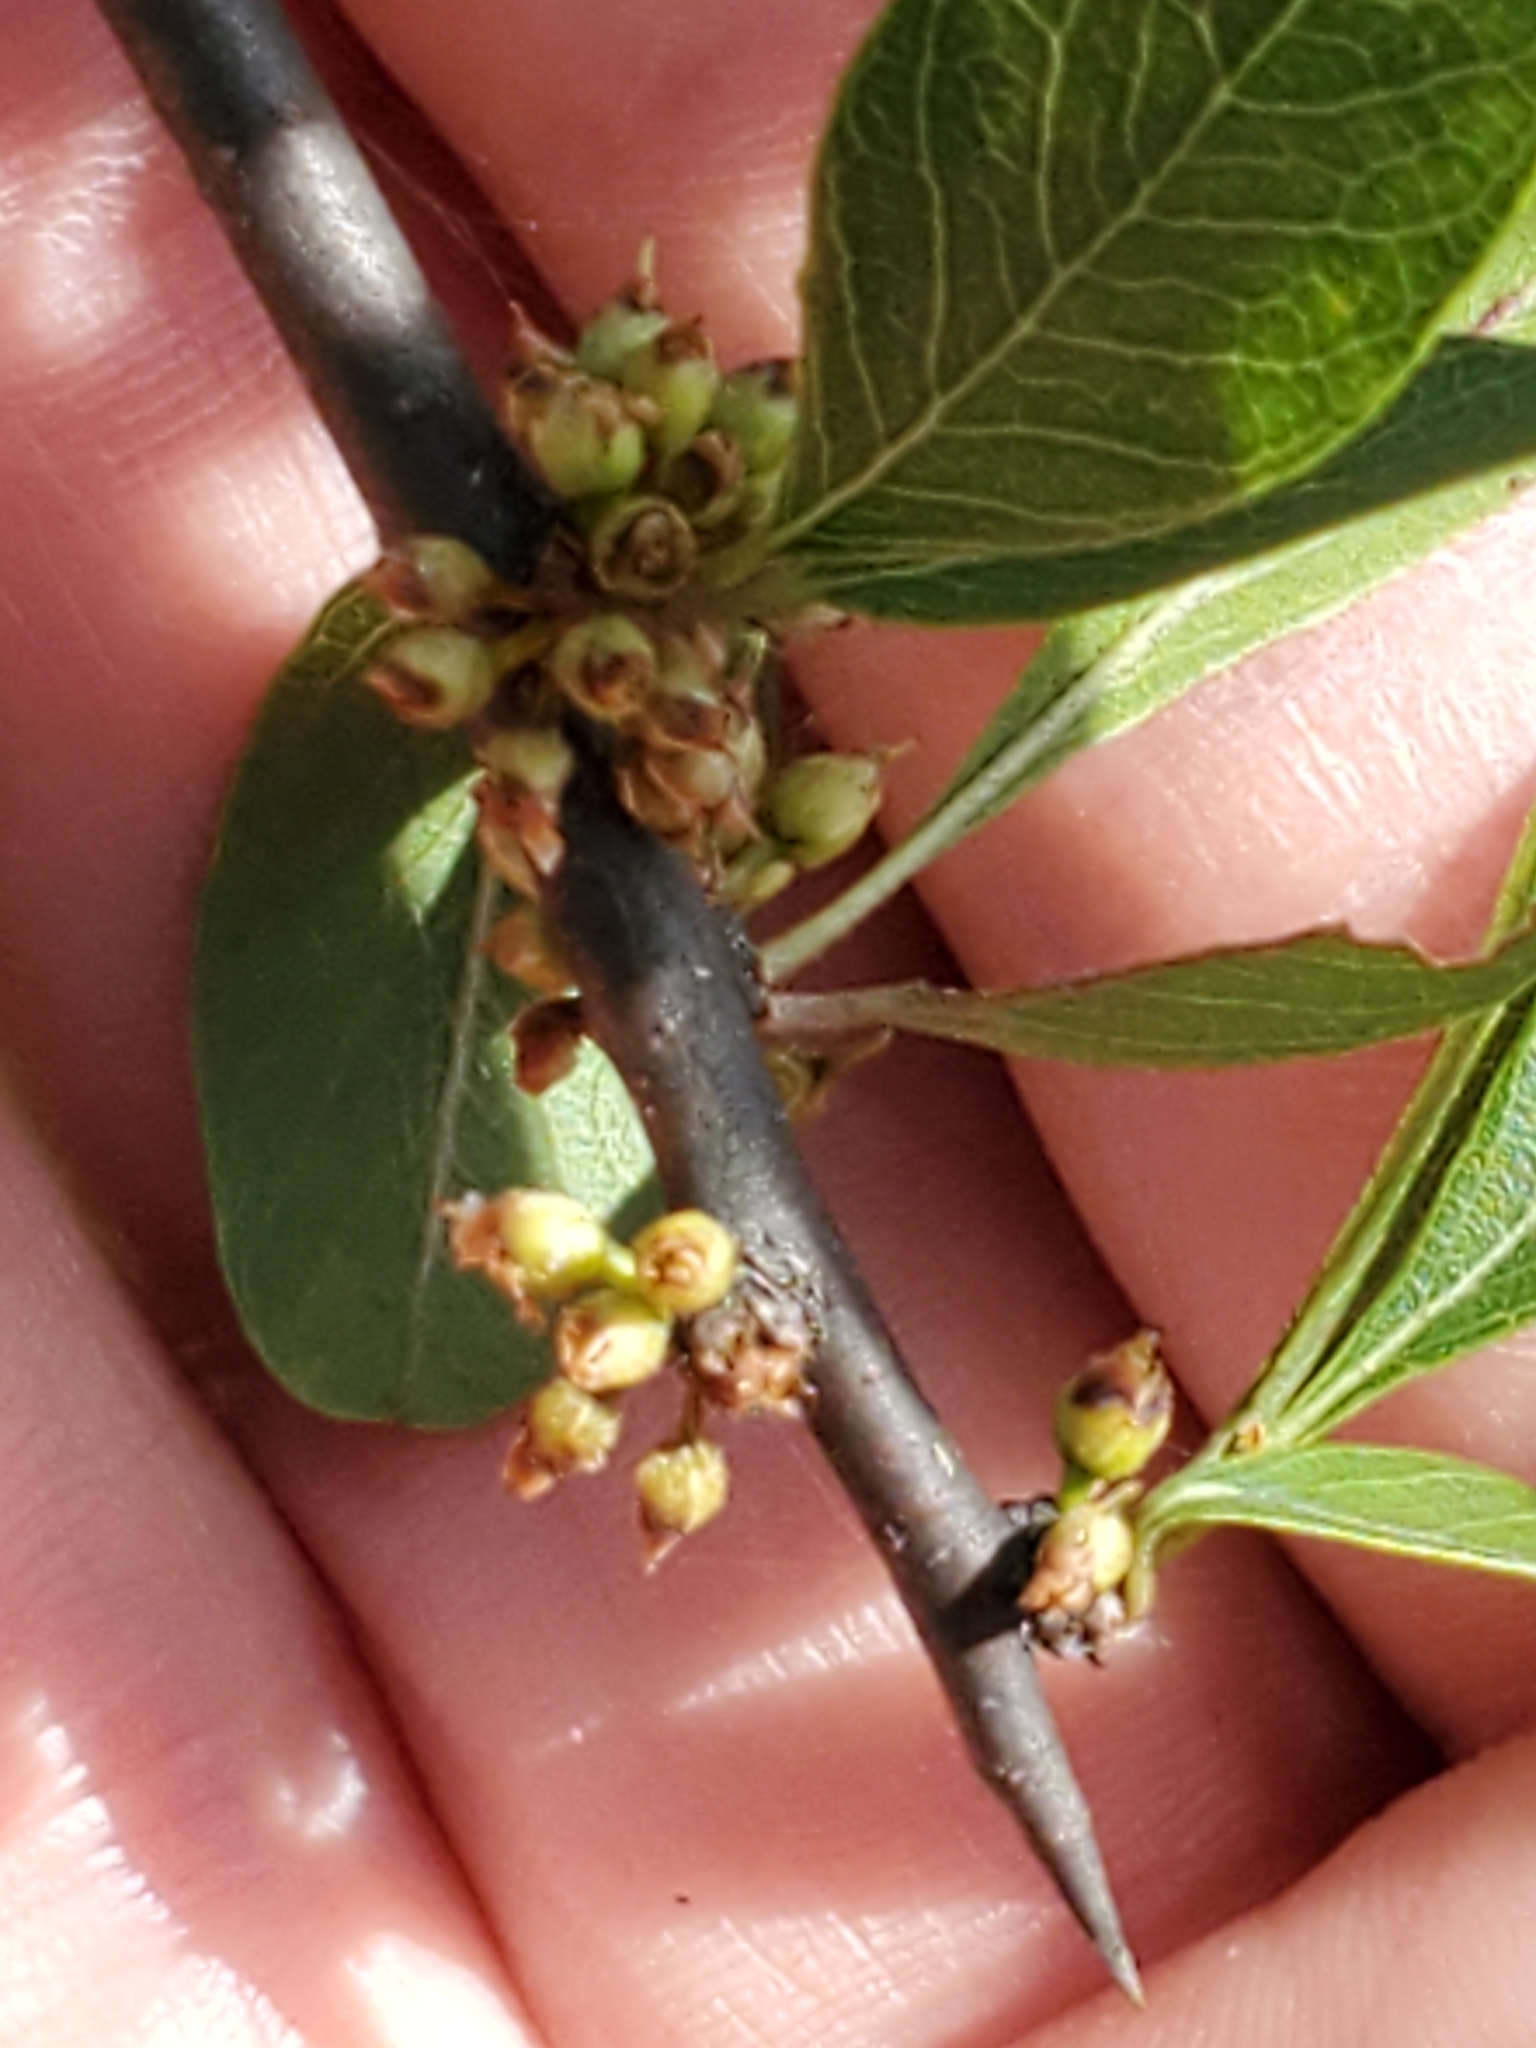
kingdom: Plantae
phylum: Tracheophyta
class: Magnoliopsida
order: Ericales
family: Sapotaceae
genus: Sideroxylon
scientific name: Sideroxylon lanuginosum
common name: Chittamwood
